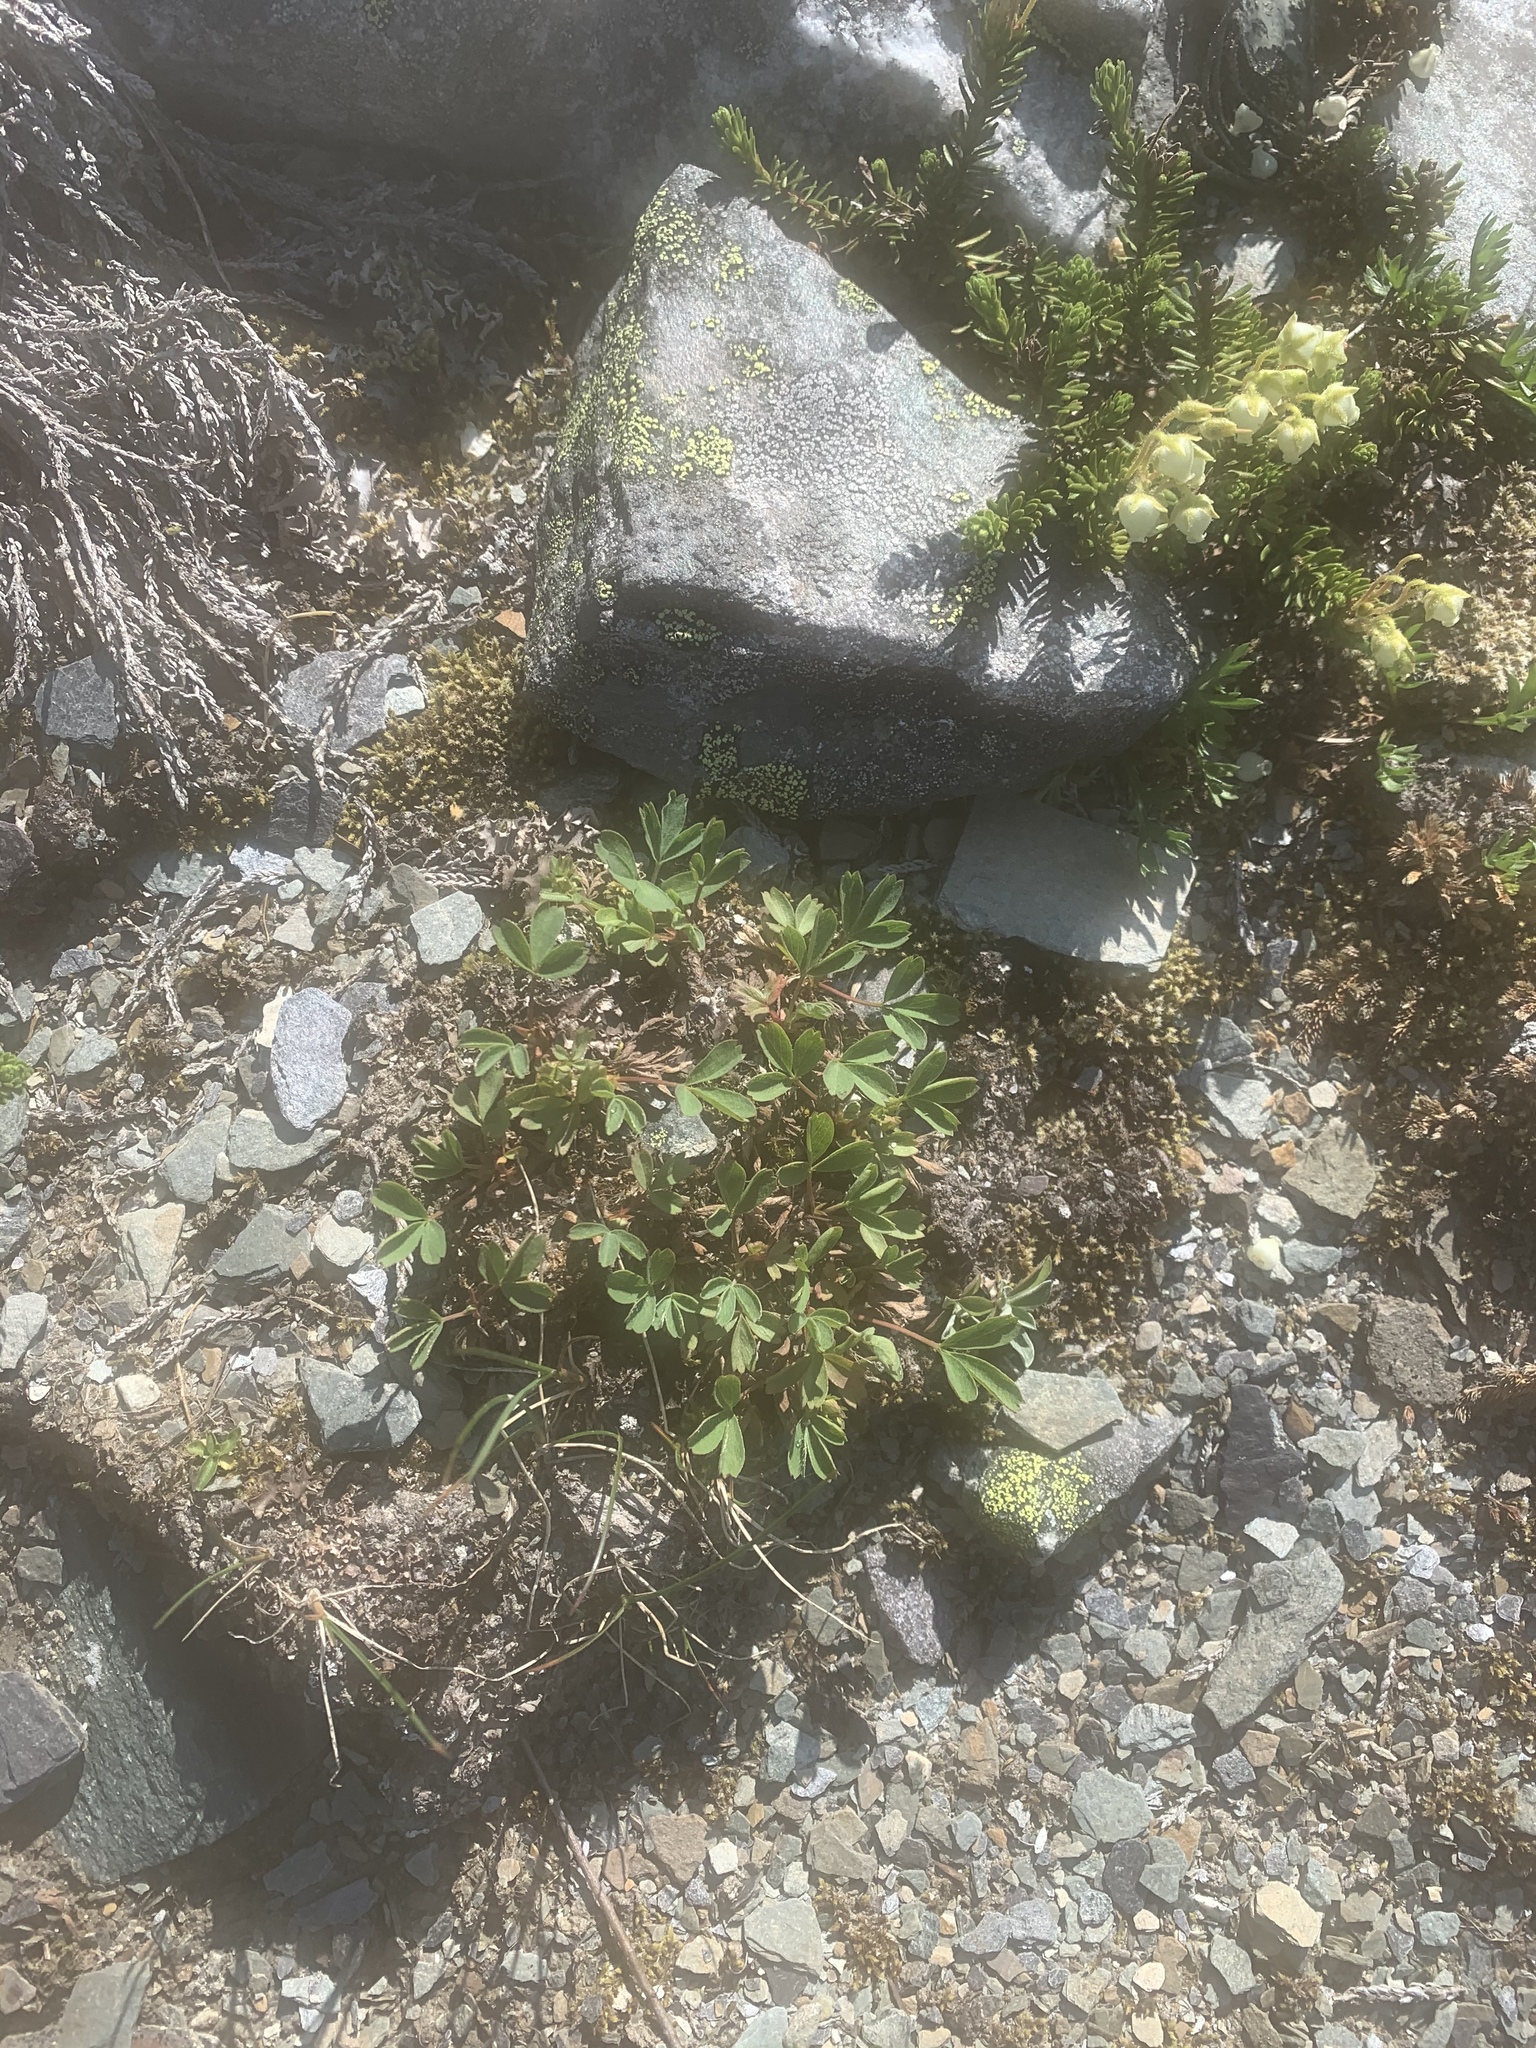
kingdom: Plantae
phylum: Tracheophyta
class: Magnoliopsida
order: Rosales
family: Rosaceae
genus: Sibbaldia
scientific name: Sibbaldia procumbens
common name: Creeping sibbaldia
